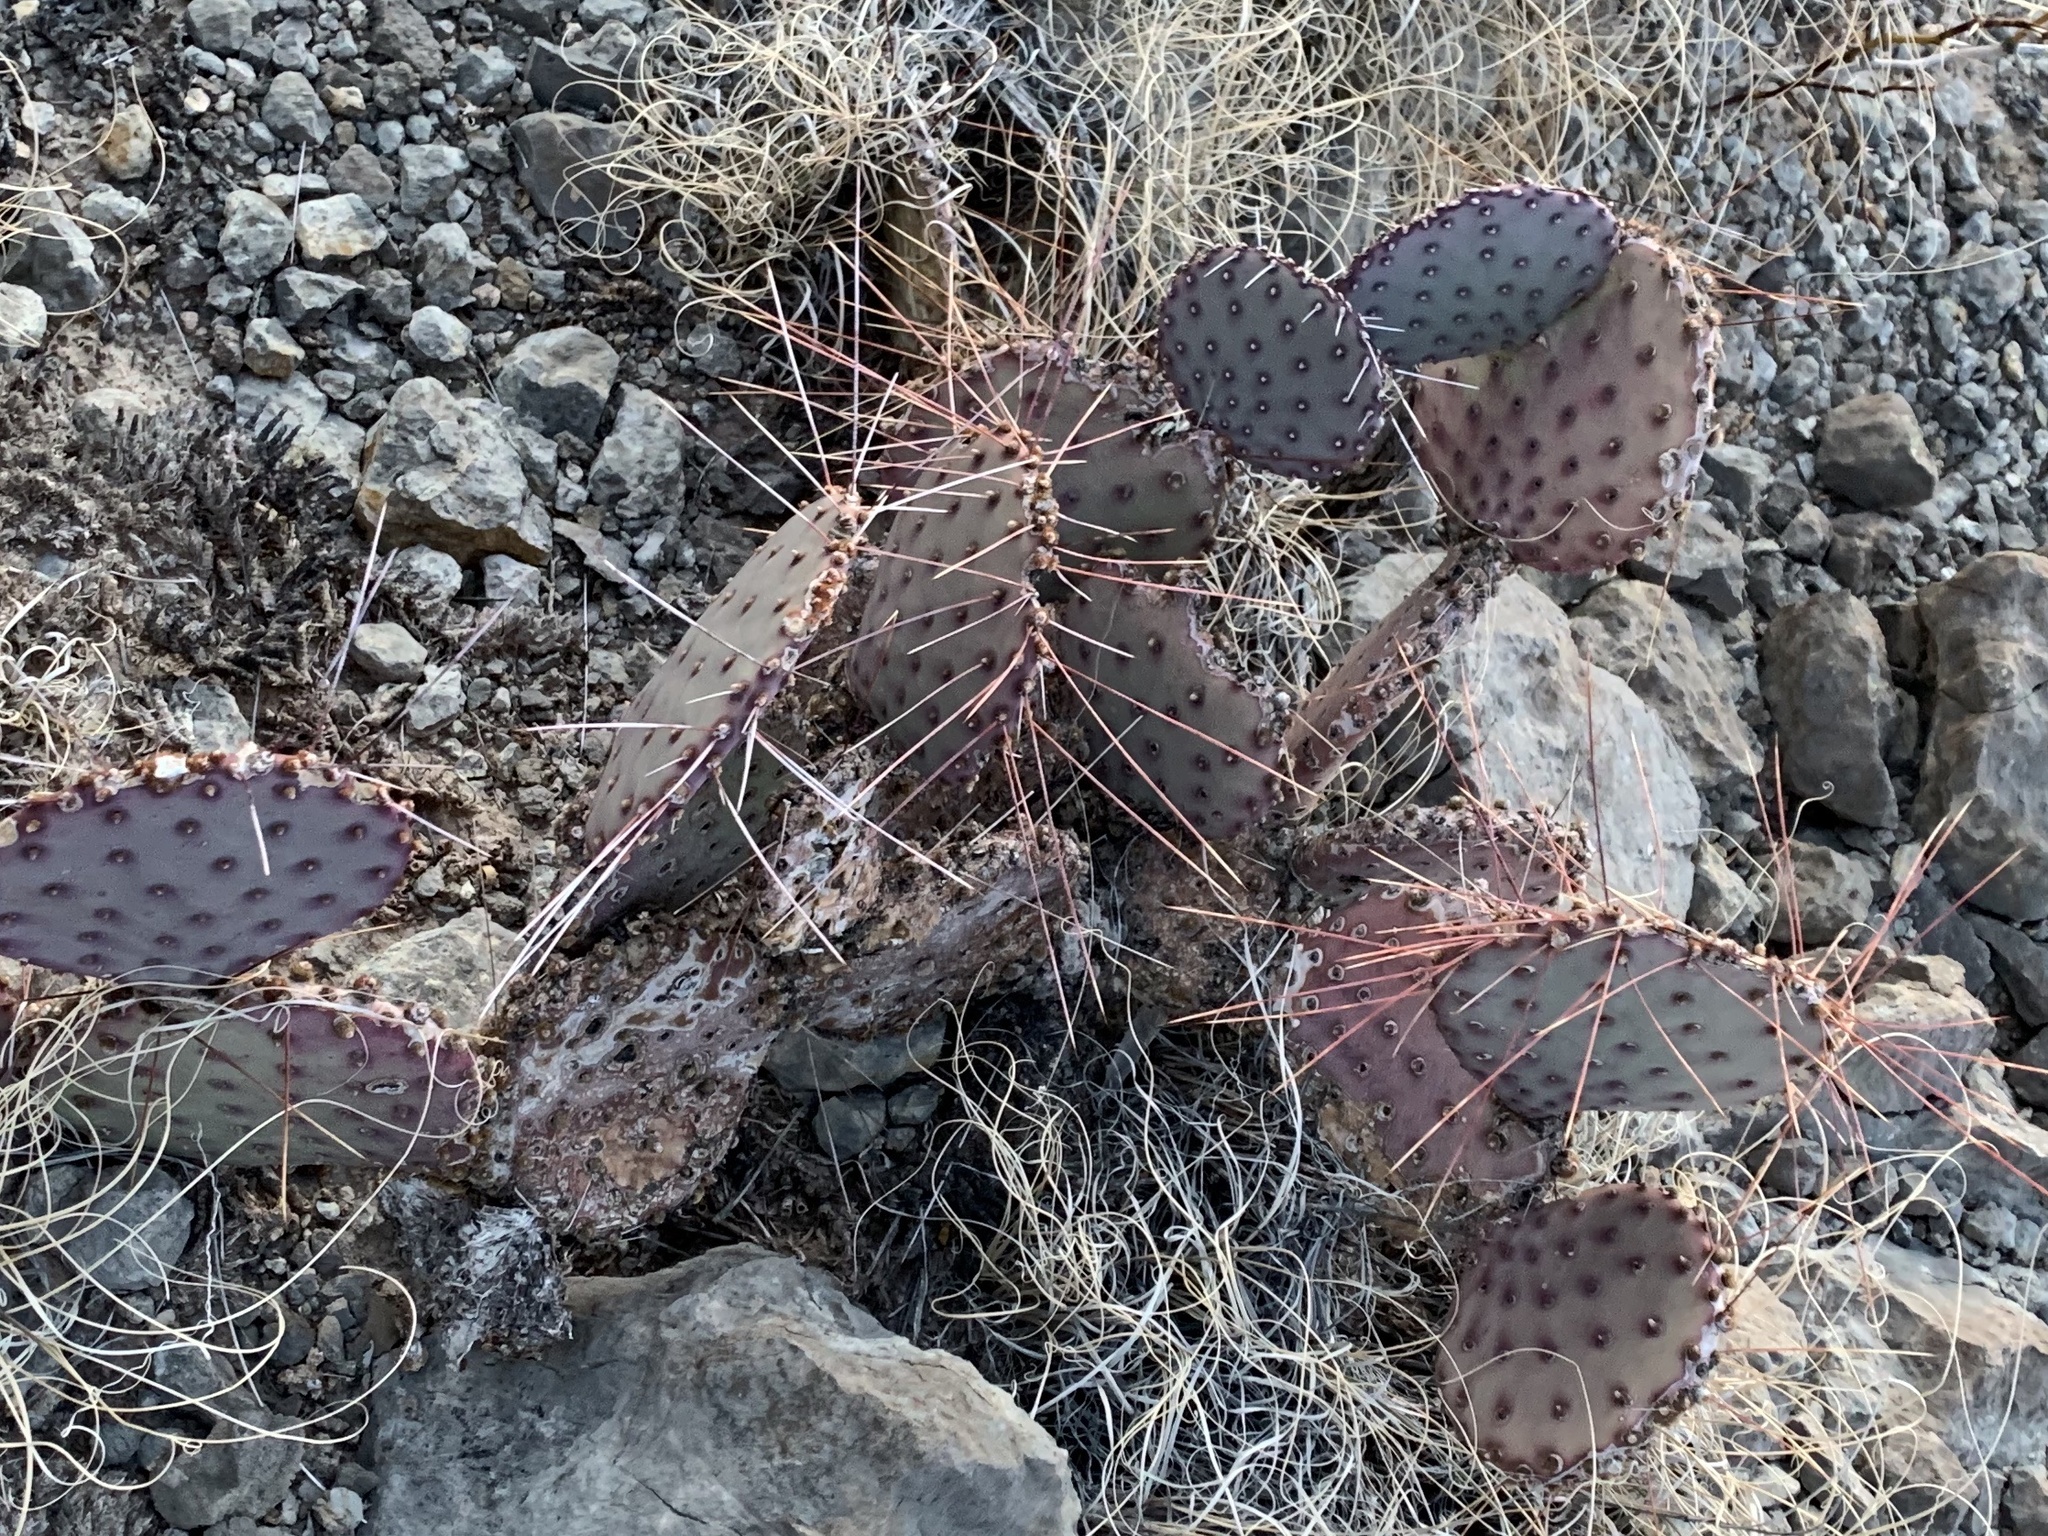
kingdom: Plantae
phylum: Tracheophyta
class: Magnoliopsida
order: Caryophyllales
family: Cactaceae
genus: Opuntia
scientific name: Opuntia macrocentra
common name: Purple prickly-pear
